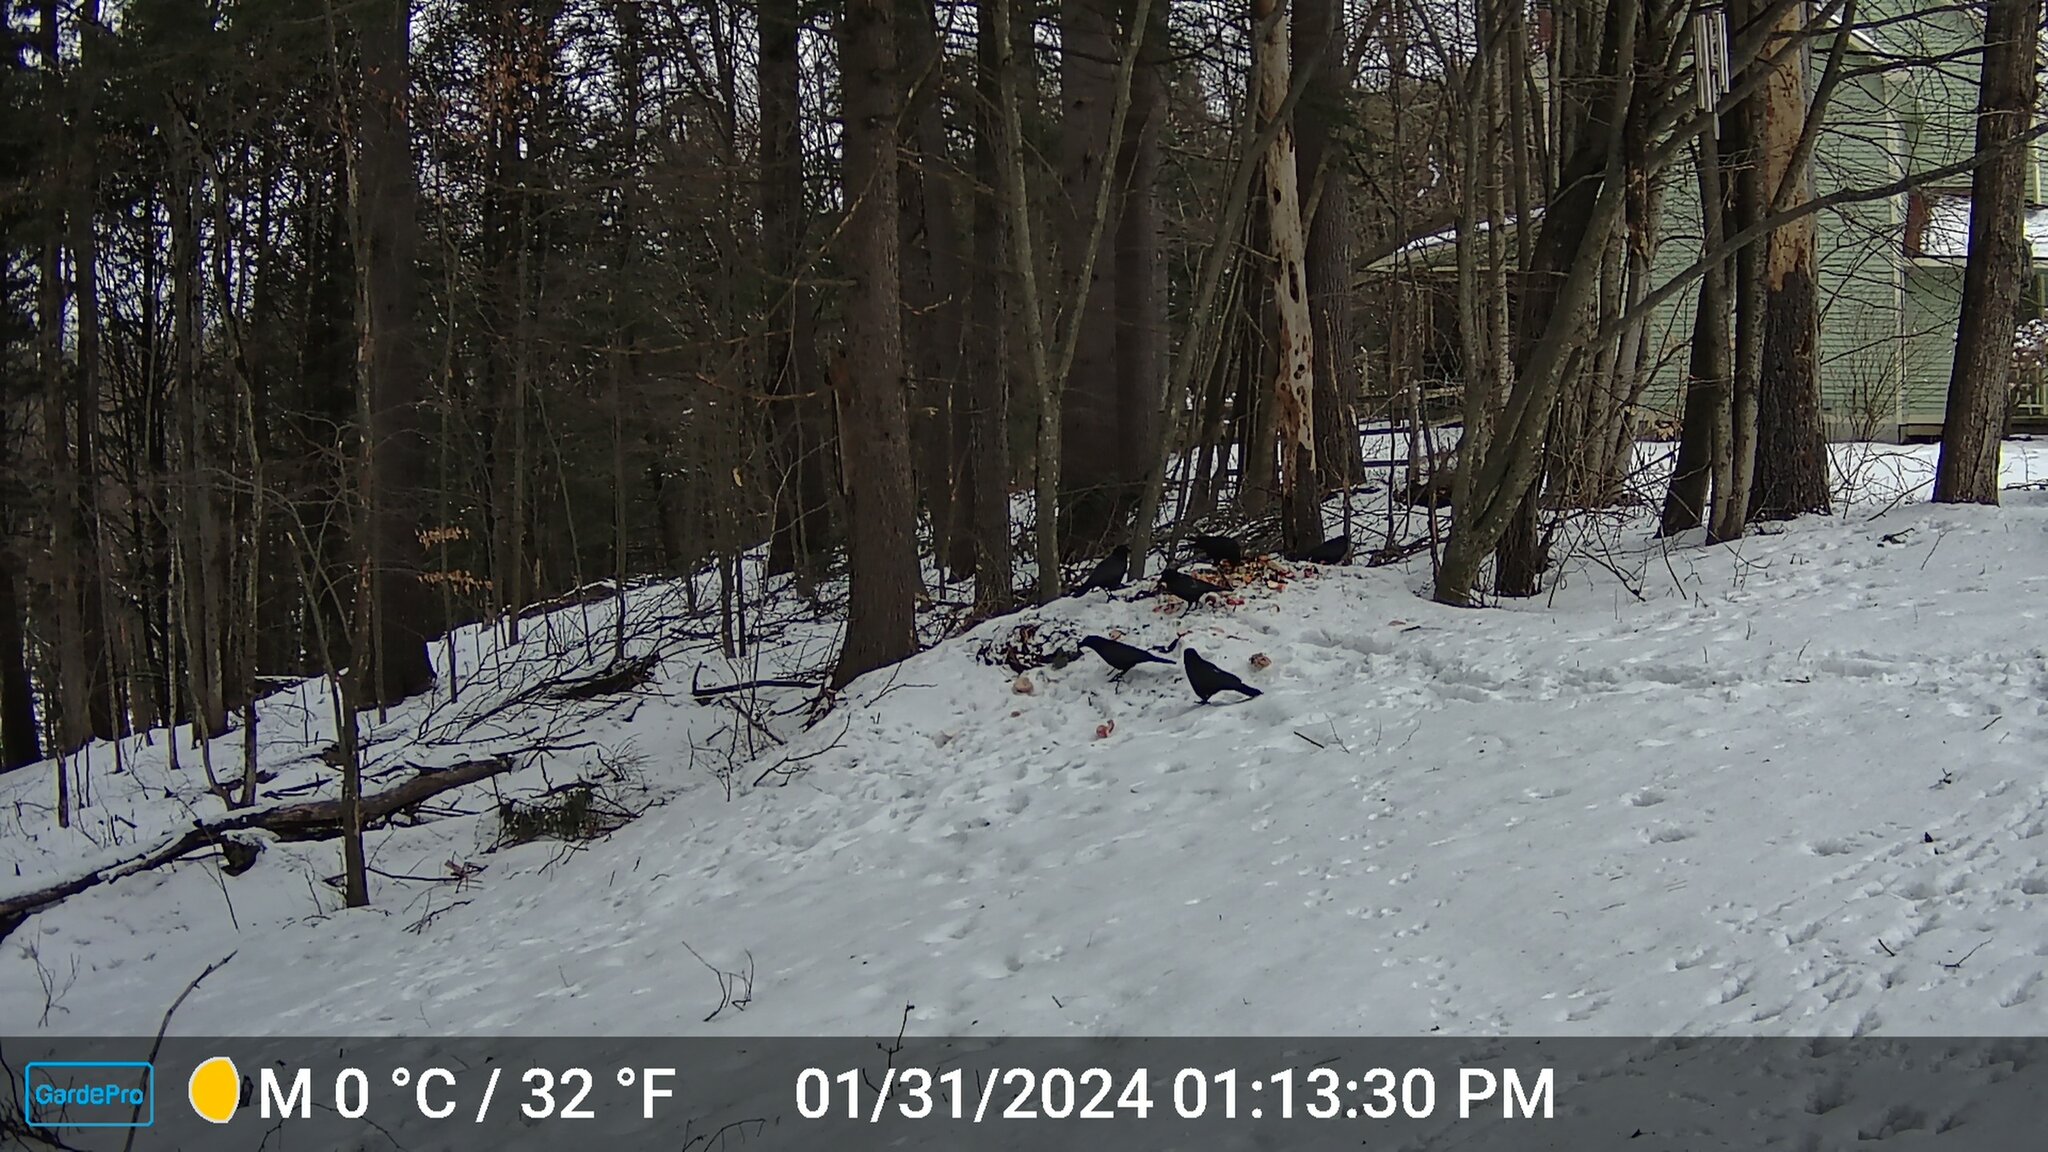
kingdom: Animalia
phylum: Chordata
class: Aves
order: Passeriformes
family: Corvidae
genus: Corvus
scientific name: Corvus brachyrhynchos
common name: American crow
